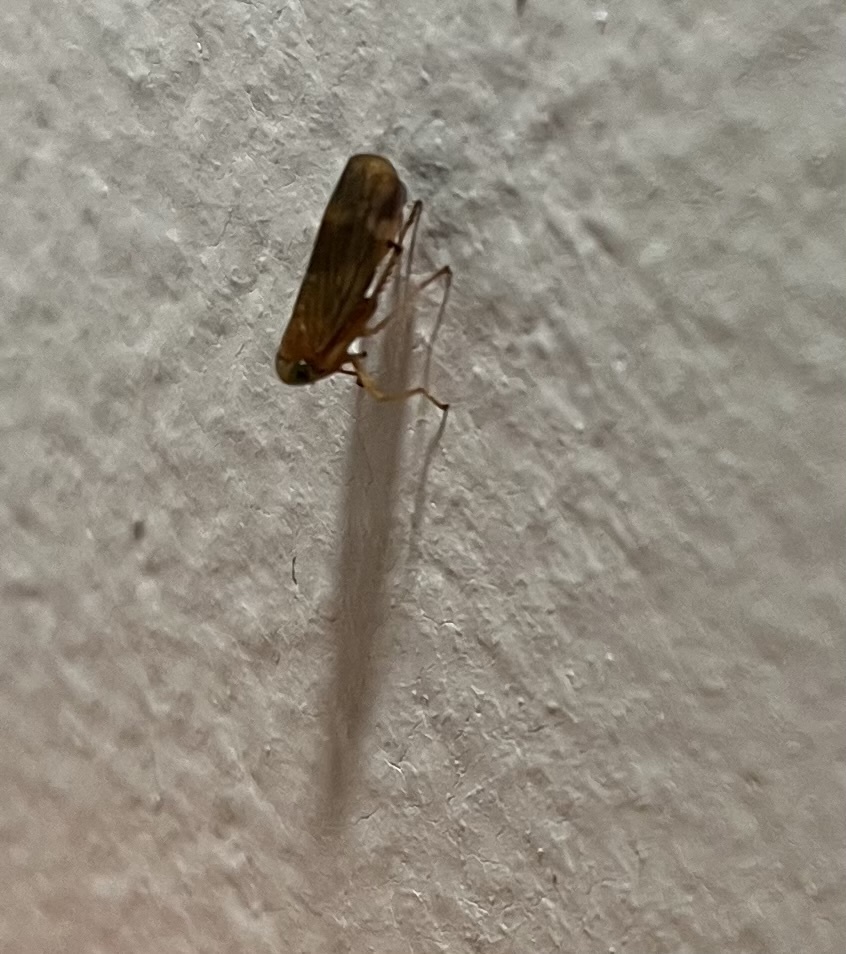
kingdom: Animalia
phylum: Arthropoda
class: Insecta
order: Hemiptera
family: Cicadellidae
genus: Jikradia
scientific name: Jikradia olitoria
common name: Coppery leafhopper
